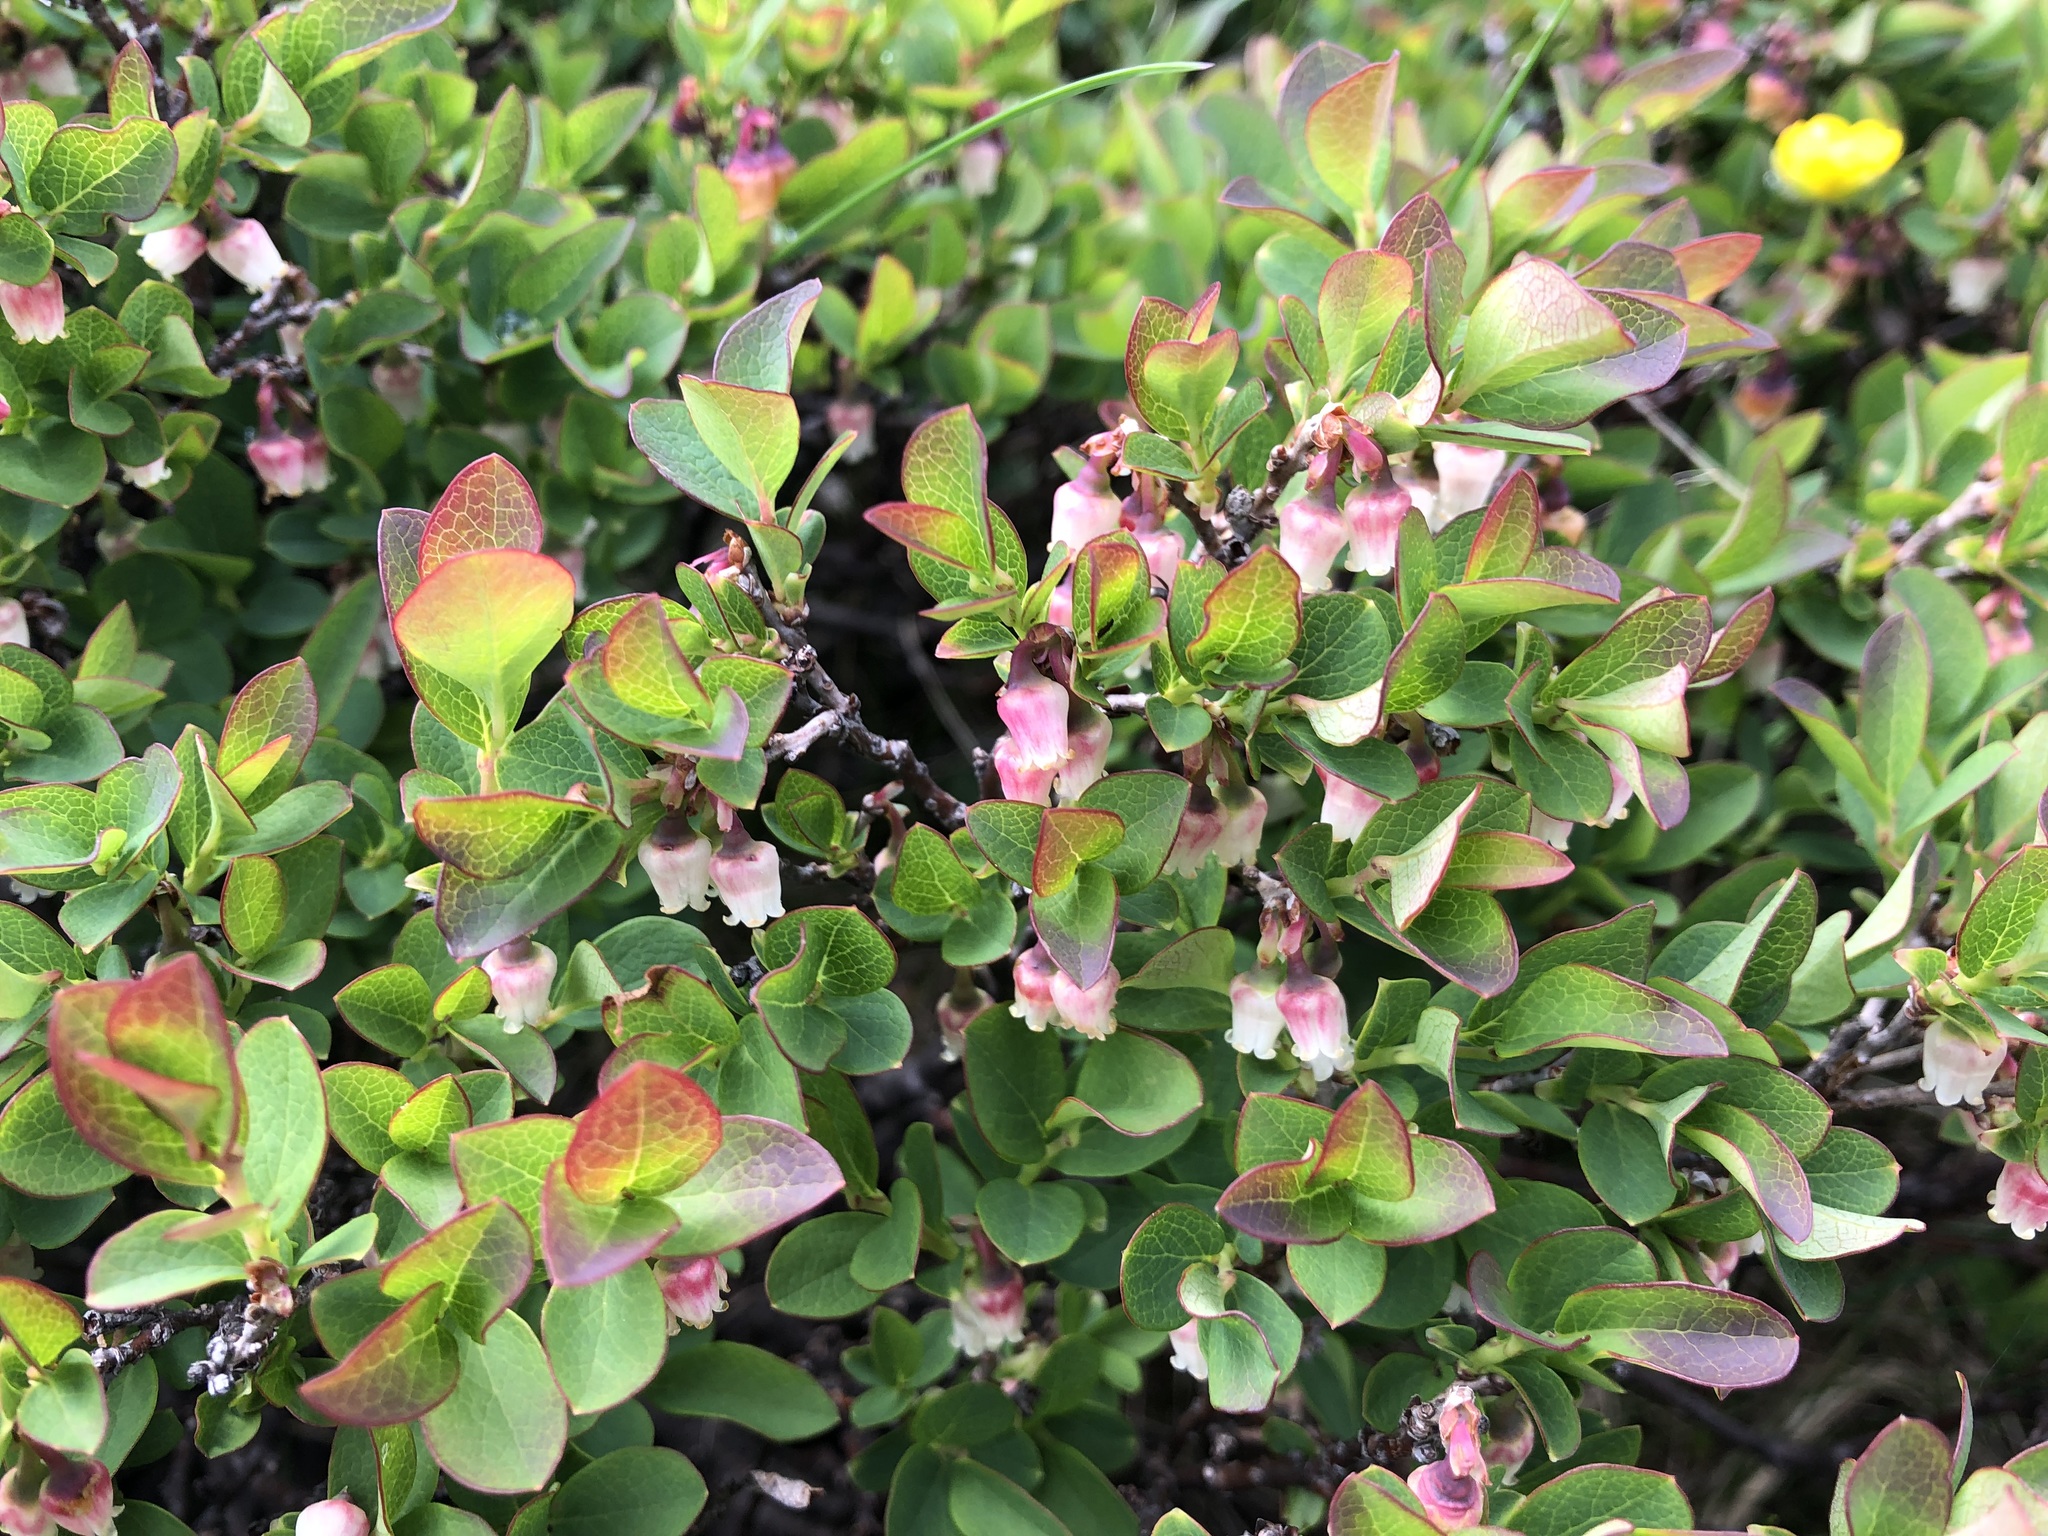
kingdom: Plantae
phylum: Tracheophyta
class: Magnoliopsida
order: Ericales
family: Ericaceae
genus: Vaccinium
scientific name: Vaccinium uliginosum
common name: Bog bilberry
